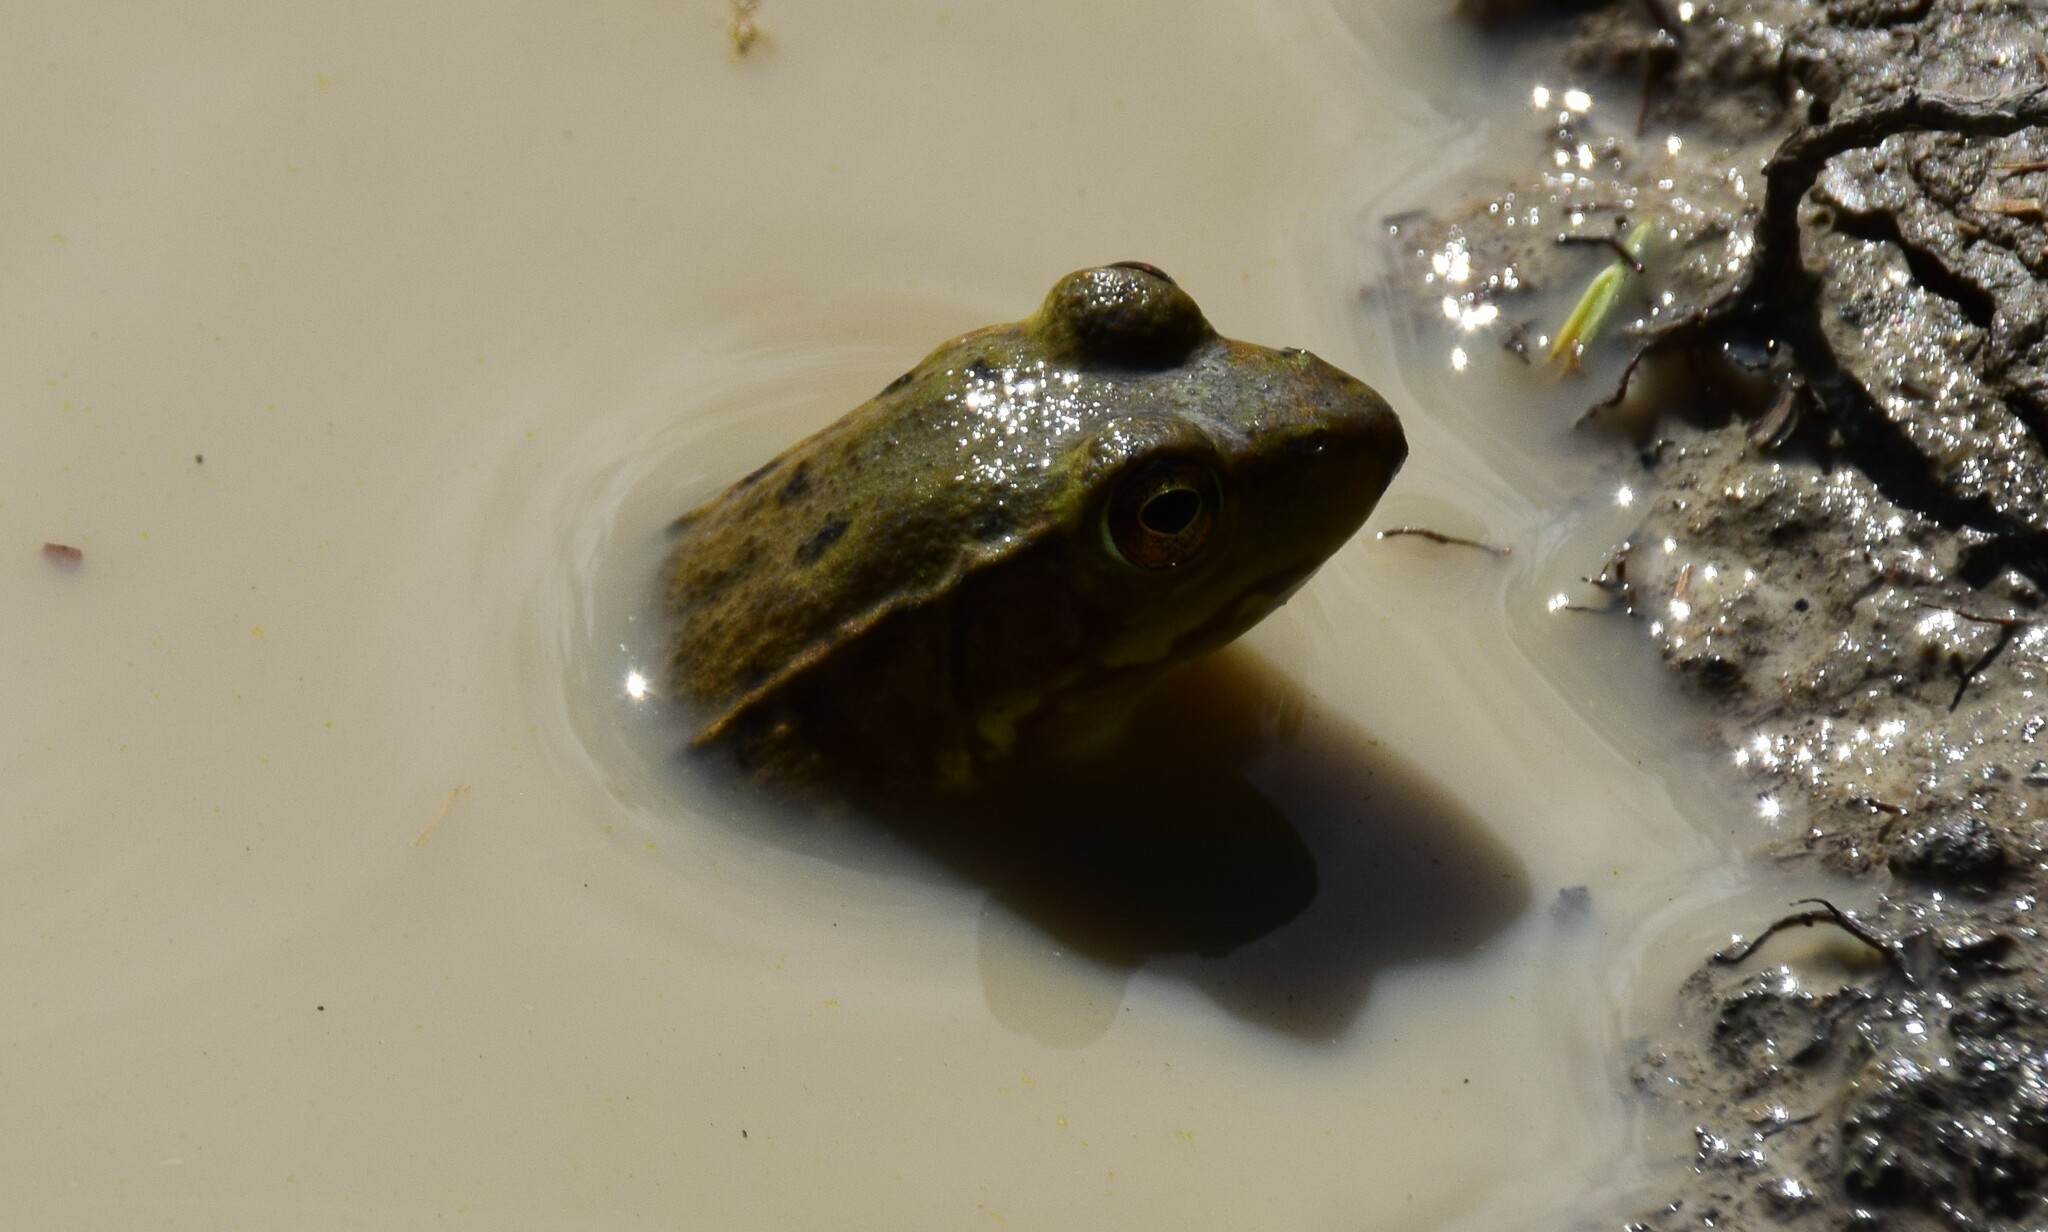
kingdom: Animalia
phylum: Chordata
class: Amphibia
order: Anura
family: Ranidae
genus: Lithobates
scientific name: Lithobates clamitans
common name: Green frog
